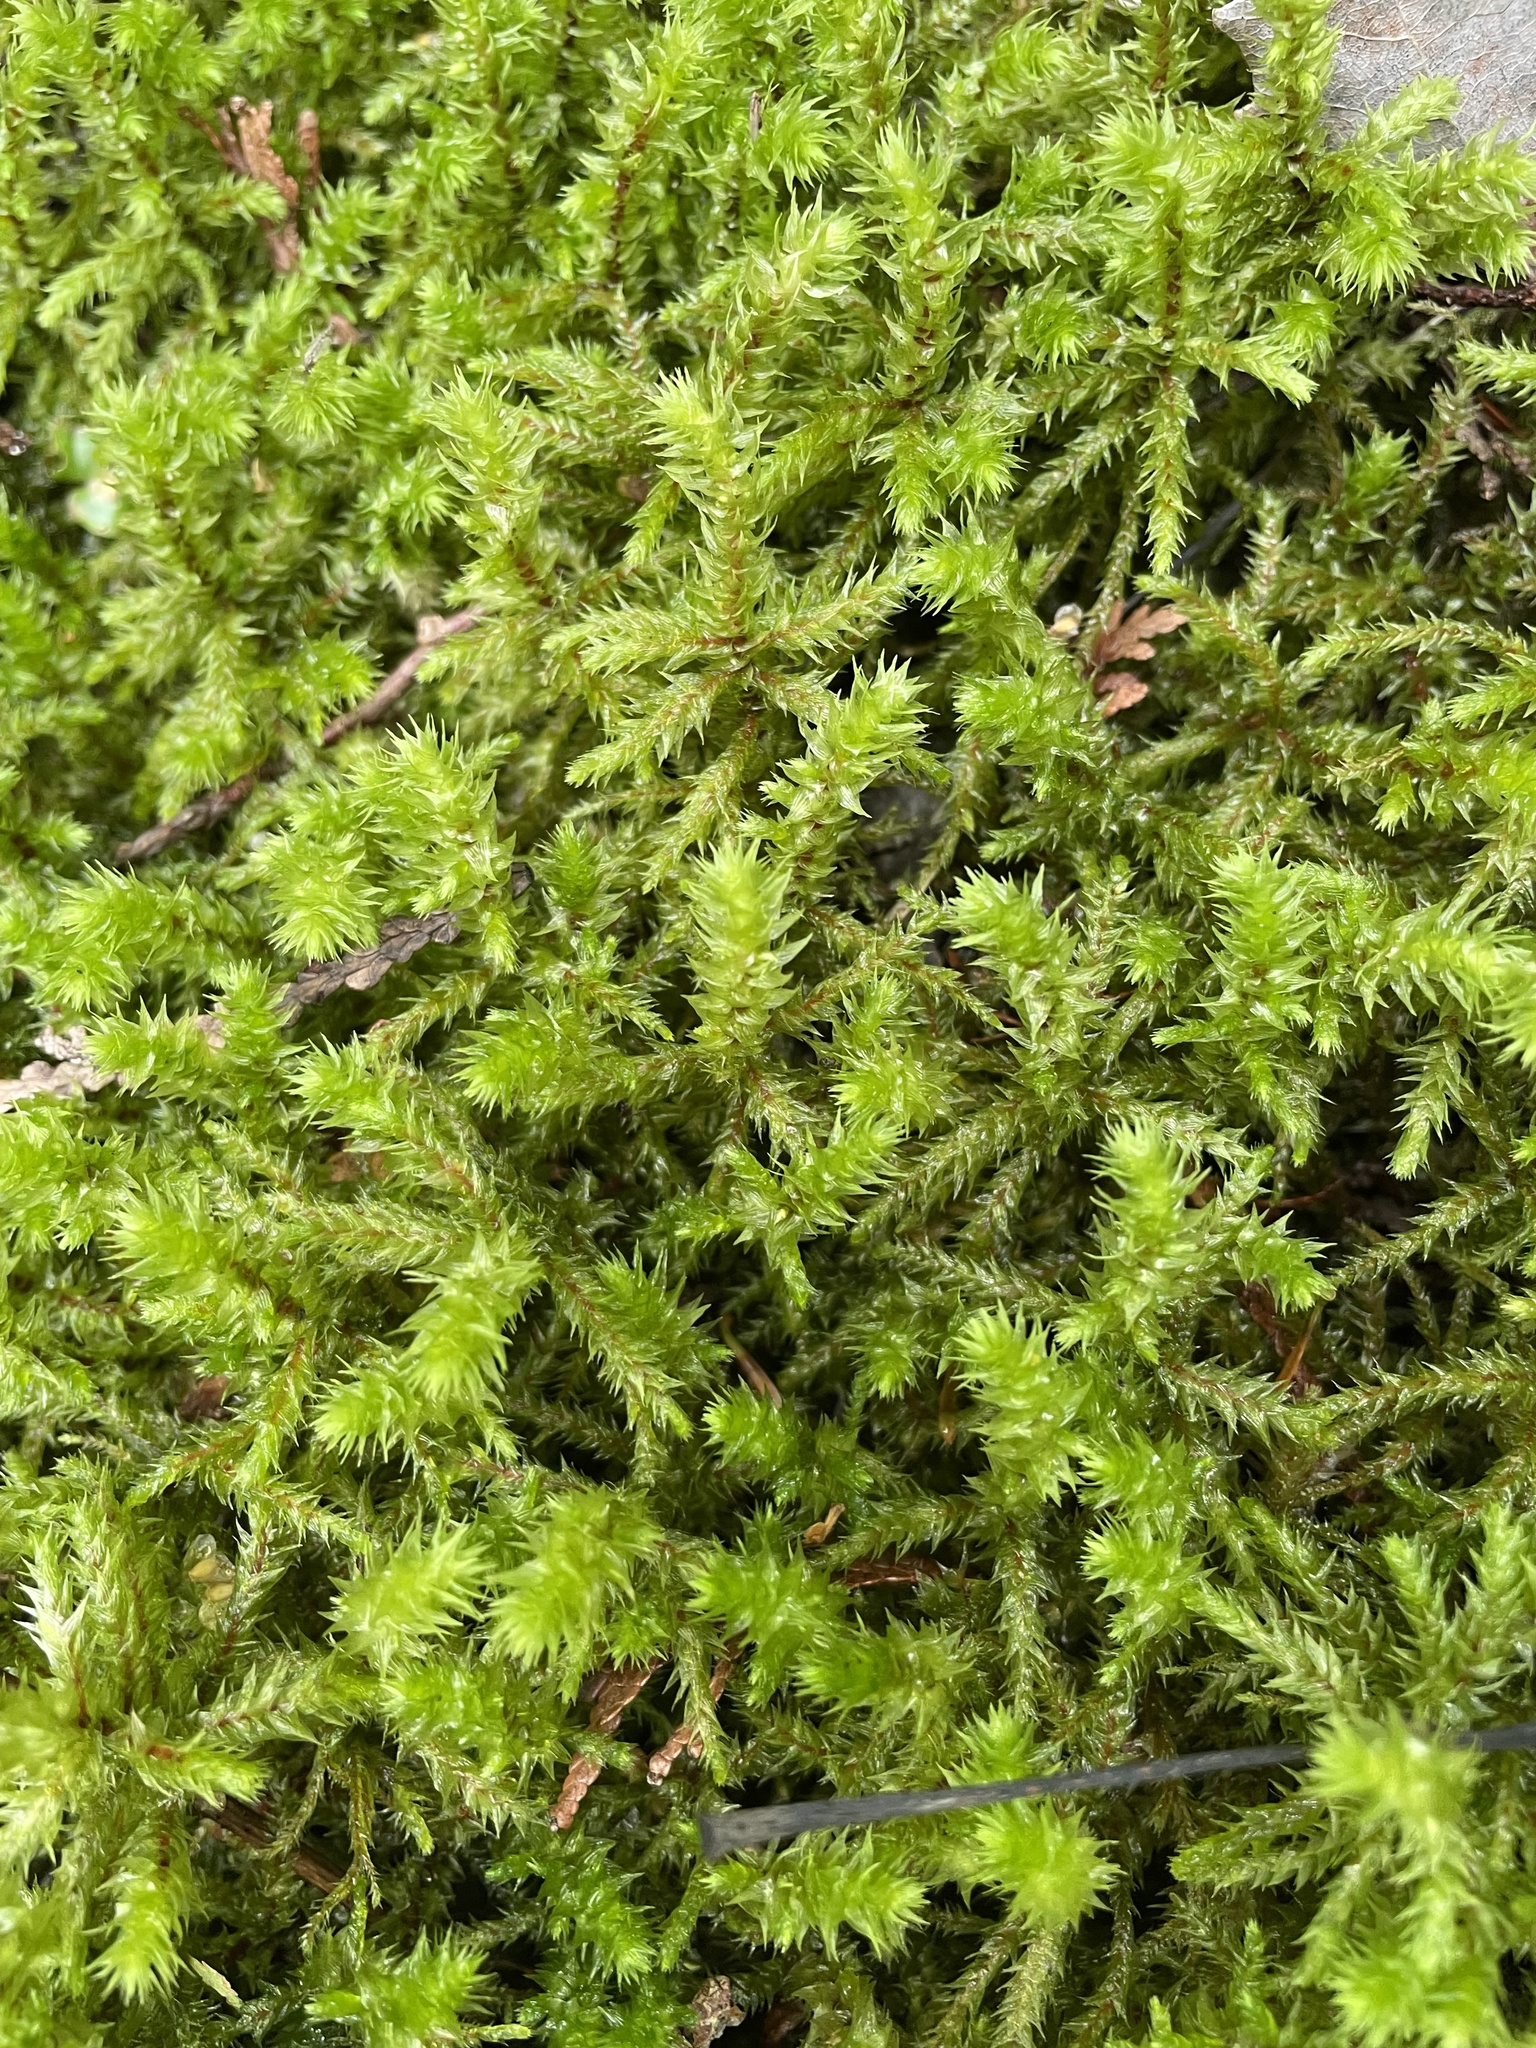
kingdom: Plantae
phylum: Bryophyta
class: Bryopsida
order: Hypnales
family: Hylocomiaceae
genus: Hylocomiadelphus
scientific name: Hylocomiadelphus triquetrus
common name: Rough goose neck moss
